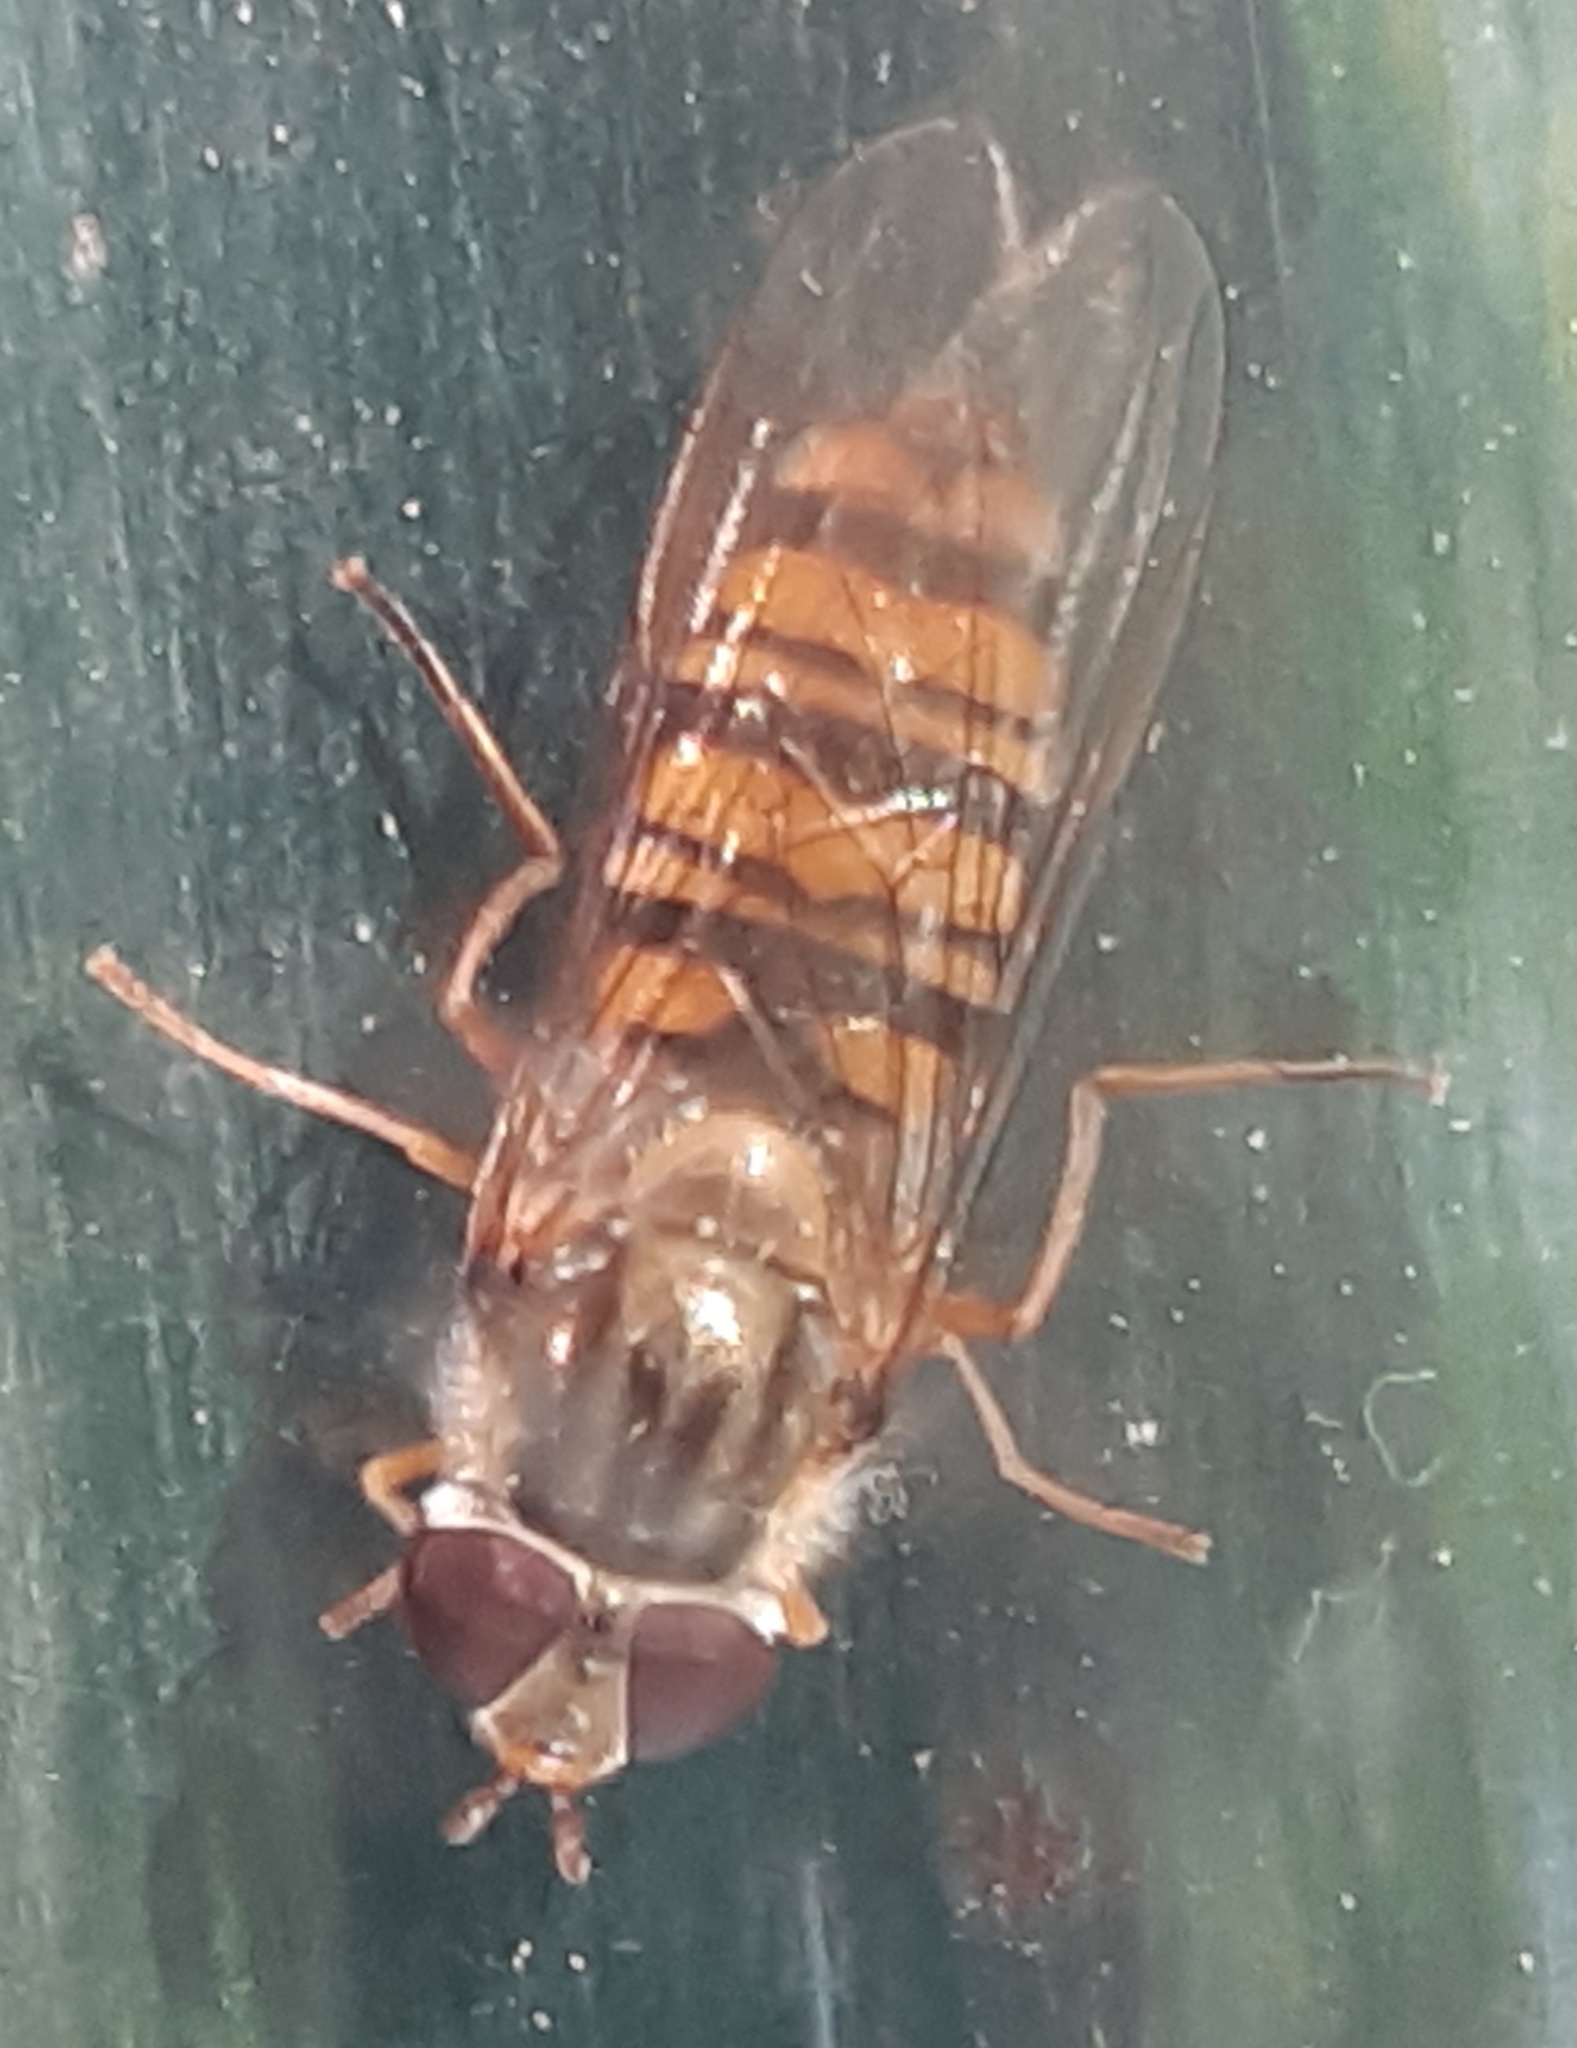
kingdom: Animalia
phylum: Arthropoda
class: Insecta
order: Diptera
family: Syrphidae
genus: Episyrphus
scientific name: Episyrphus balteatus
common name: Marmalade hoverfly
